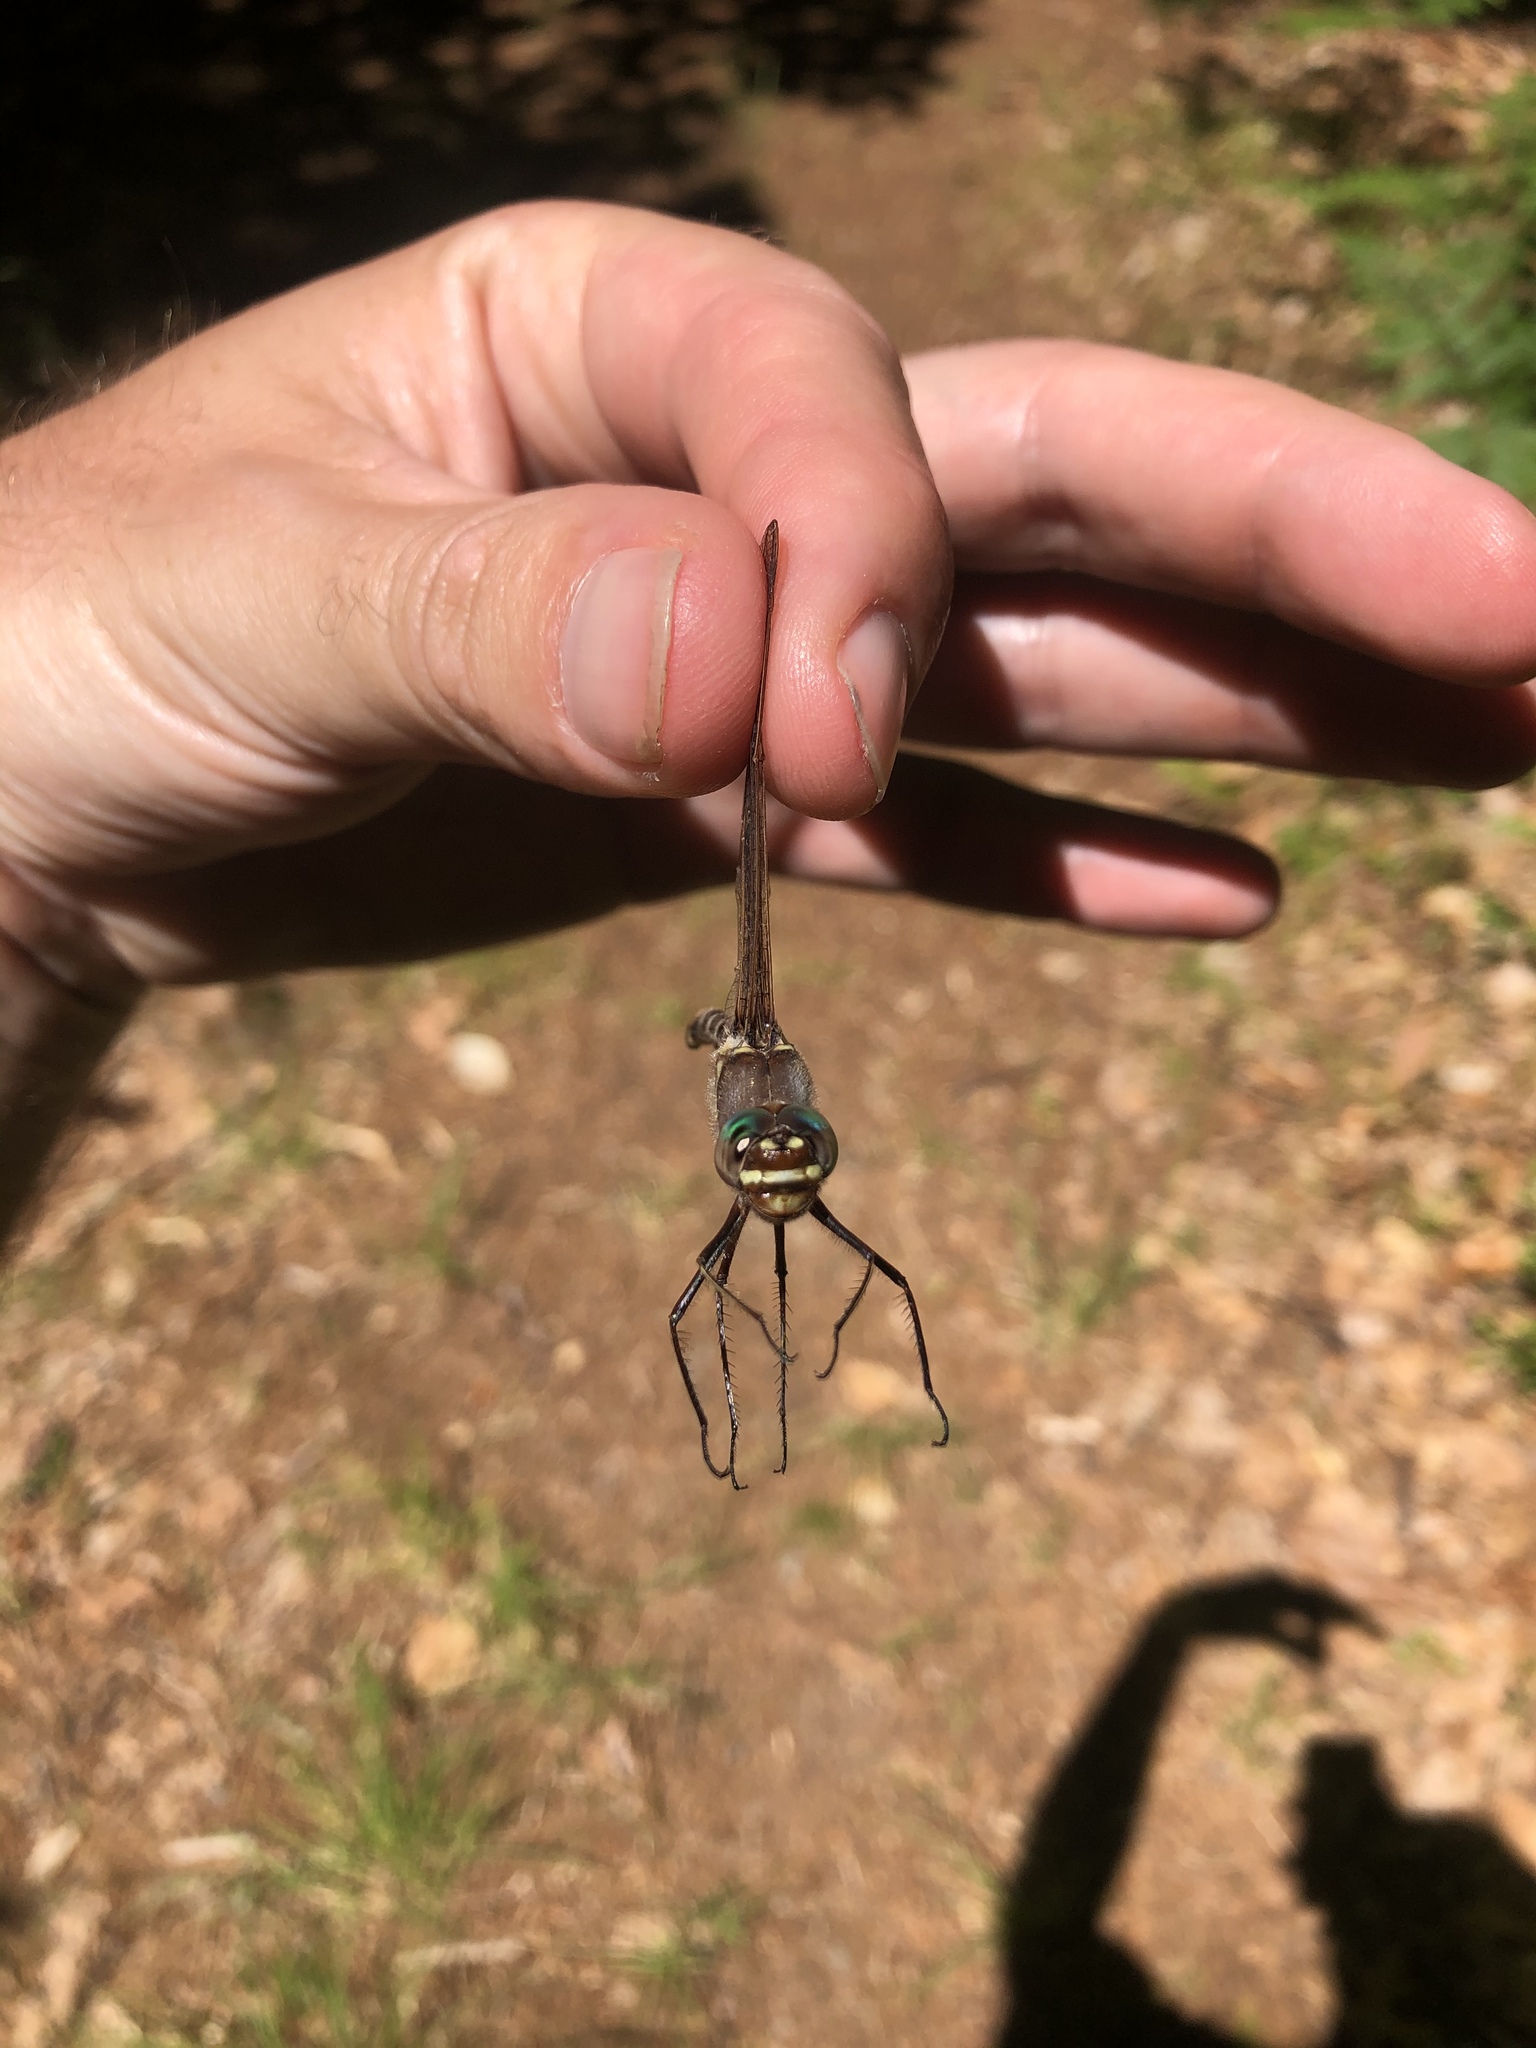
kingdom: Animalia
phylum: Arthropoda
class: Insecta
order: Odonata
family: Macromiidae
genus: Didymops
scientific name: Didymops transversa
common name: Stream cruiser
